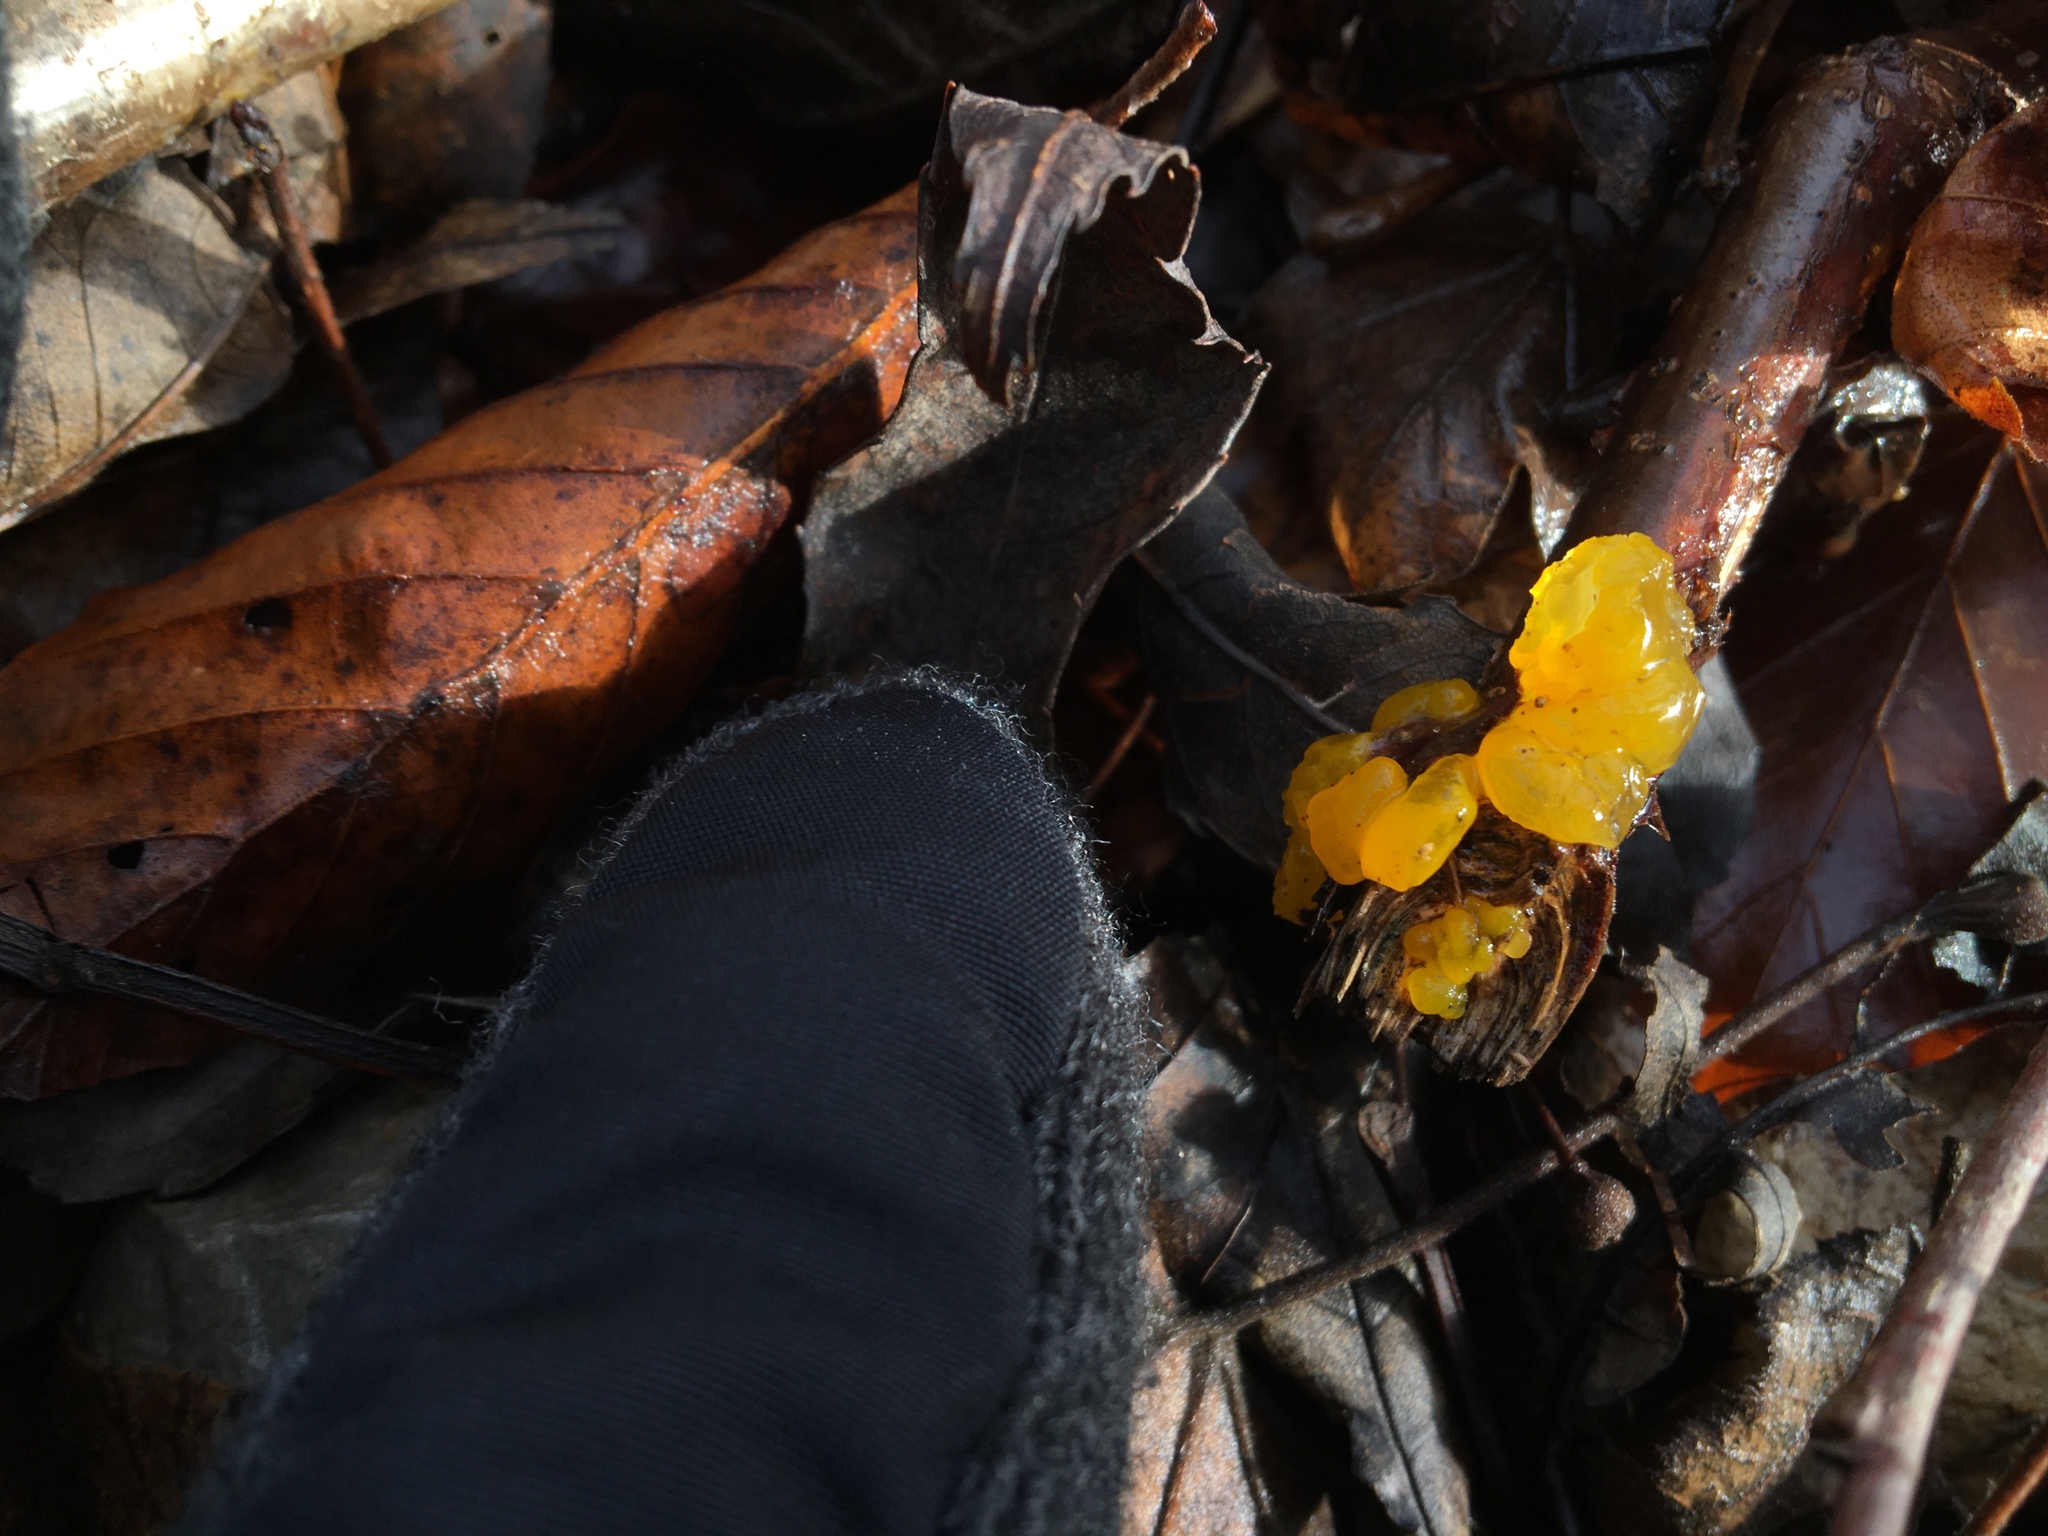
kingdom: Fungi
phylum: Basidiomycota
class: Tremellomycetes
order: Tremellales
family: Tremellaceae
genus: Tremella
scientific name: Tremella mesenterica
